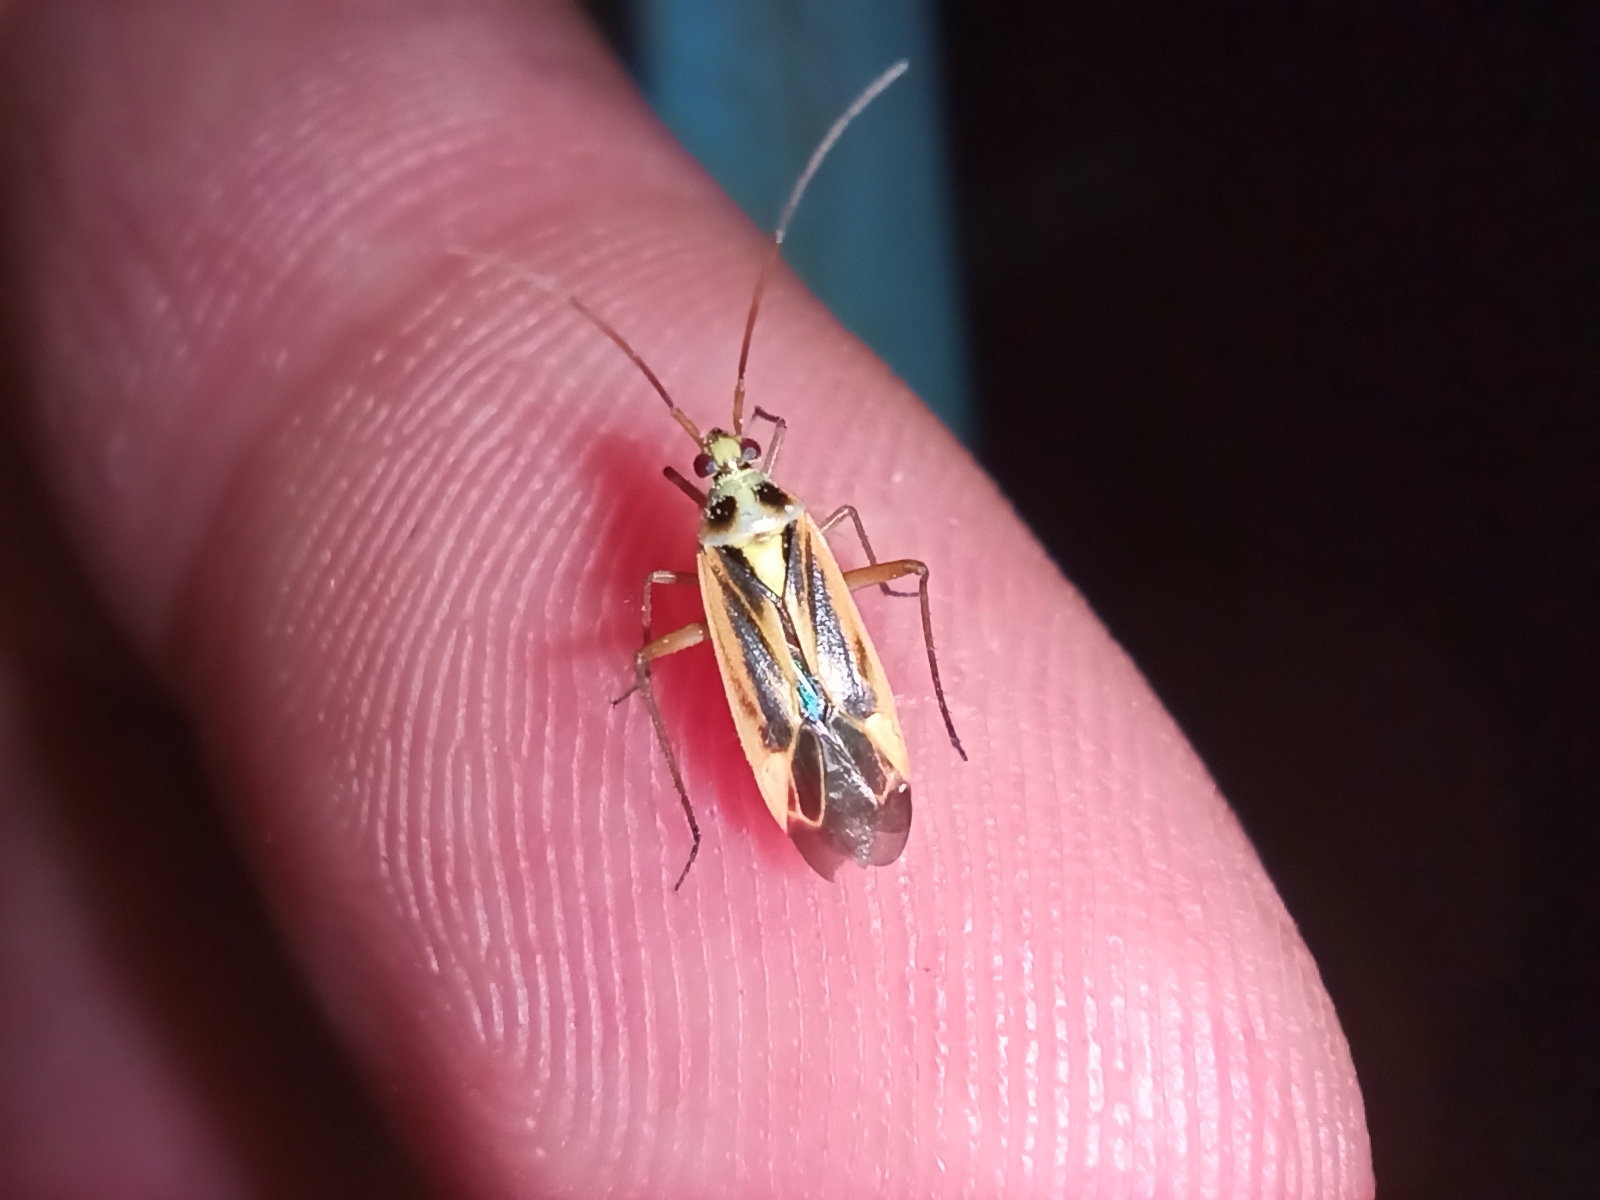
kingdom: Animalia
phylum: Arthropoda
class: Insecta
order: Hemiptera
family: Miridae
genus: Stenotus
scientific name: Stenotus binotatus
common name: Plant bug
